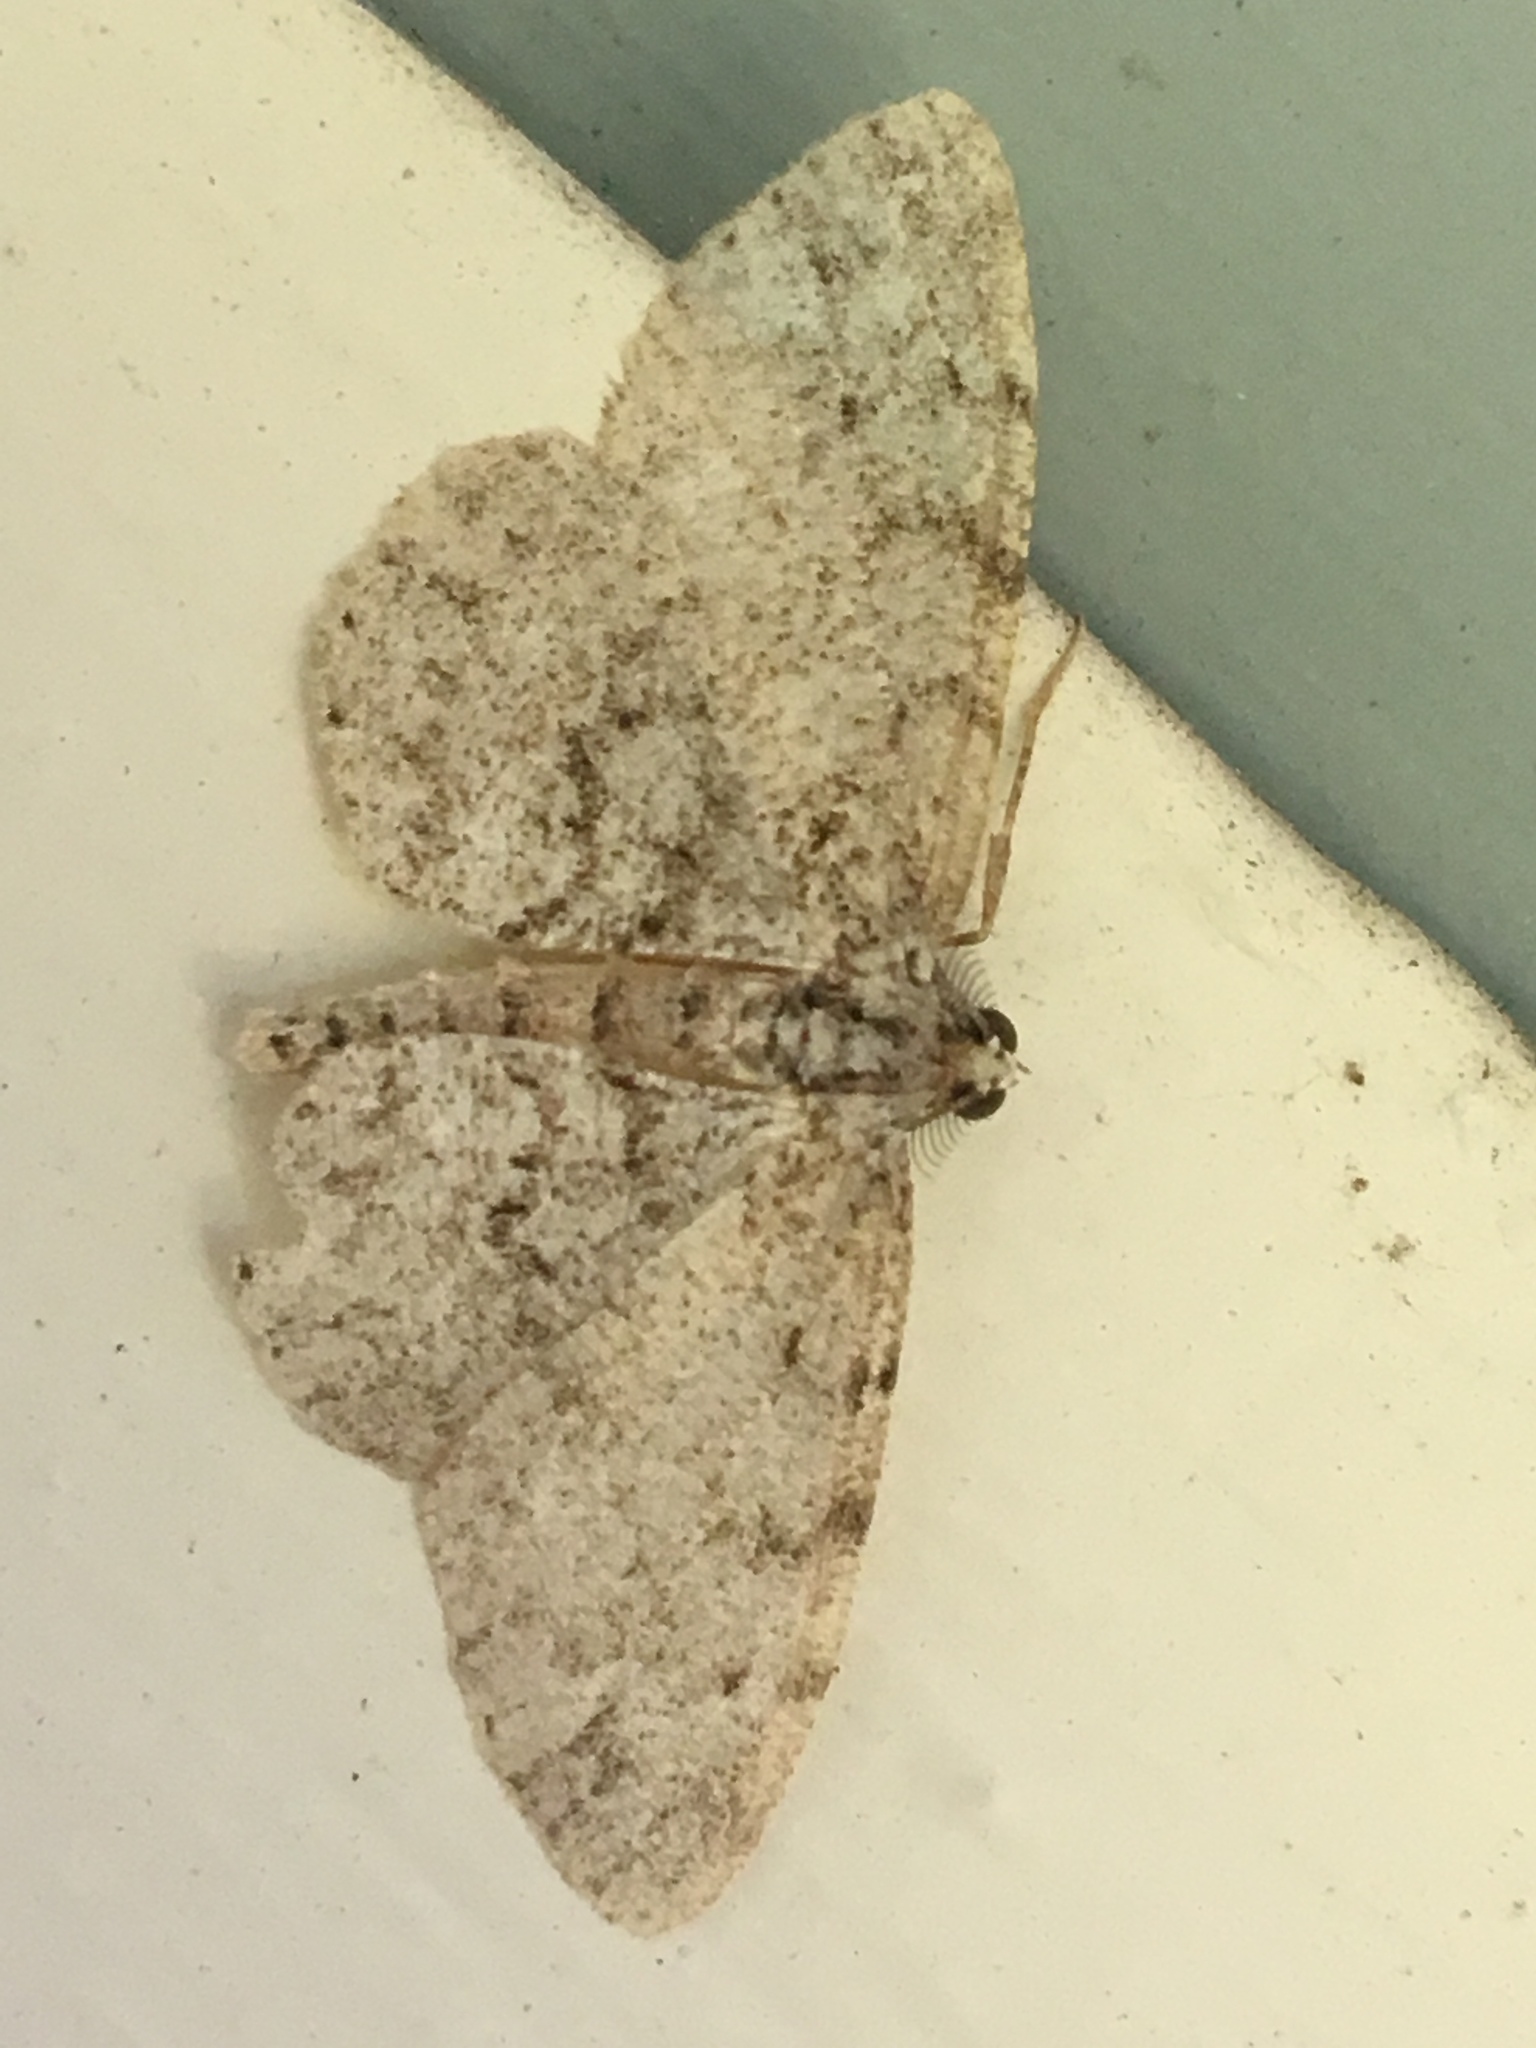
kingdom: Animalia
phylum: Arthropoda
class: Insecta
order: Lepidoptera
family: Geometridae
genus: Protoboarmia
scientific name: Protoboarmia porcelaria
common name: Porcelain gray
